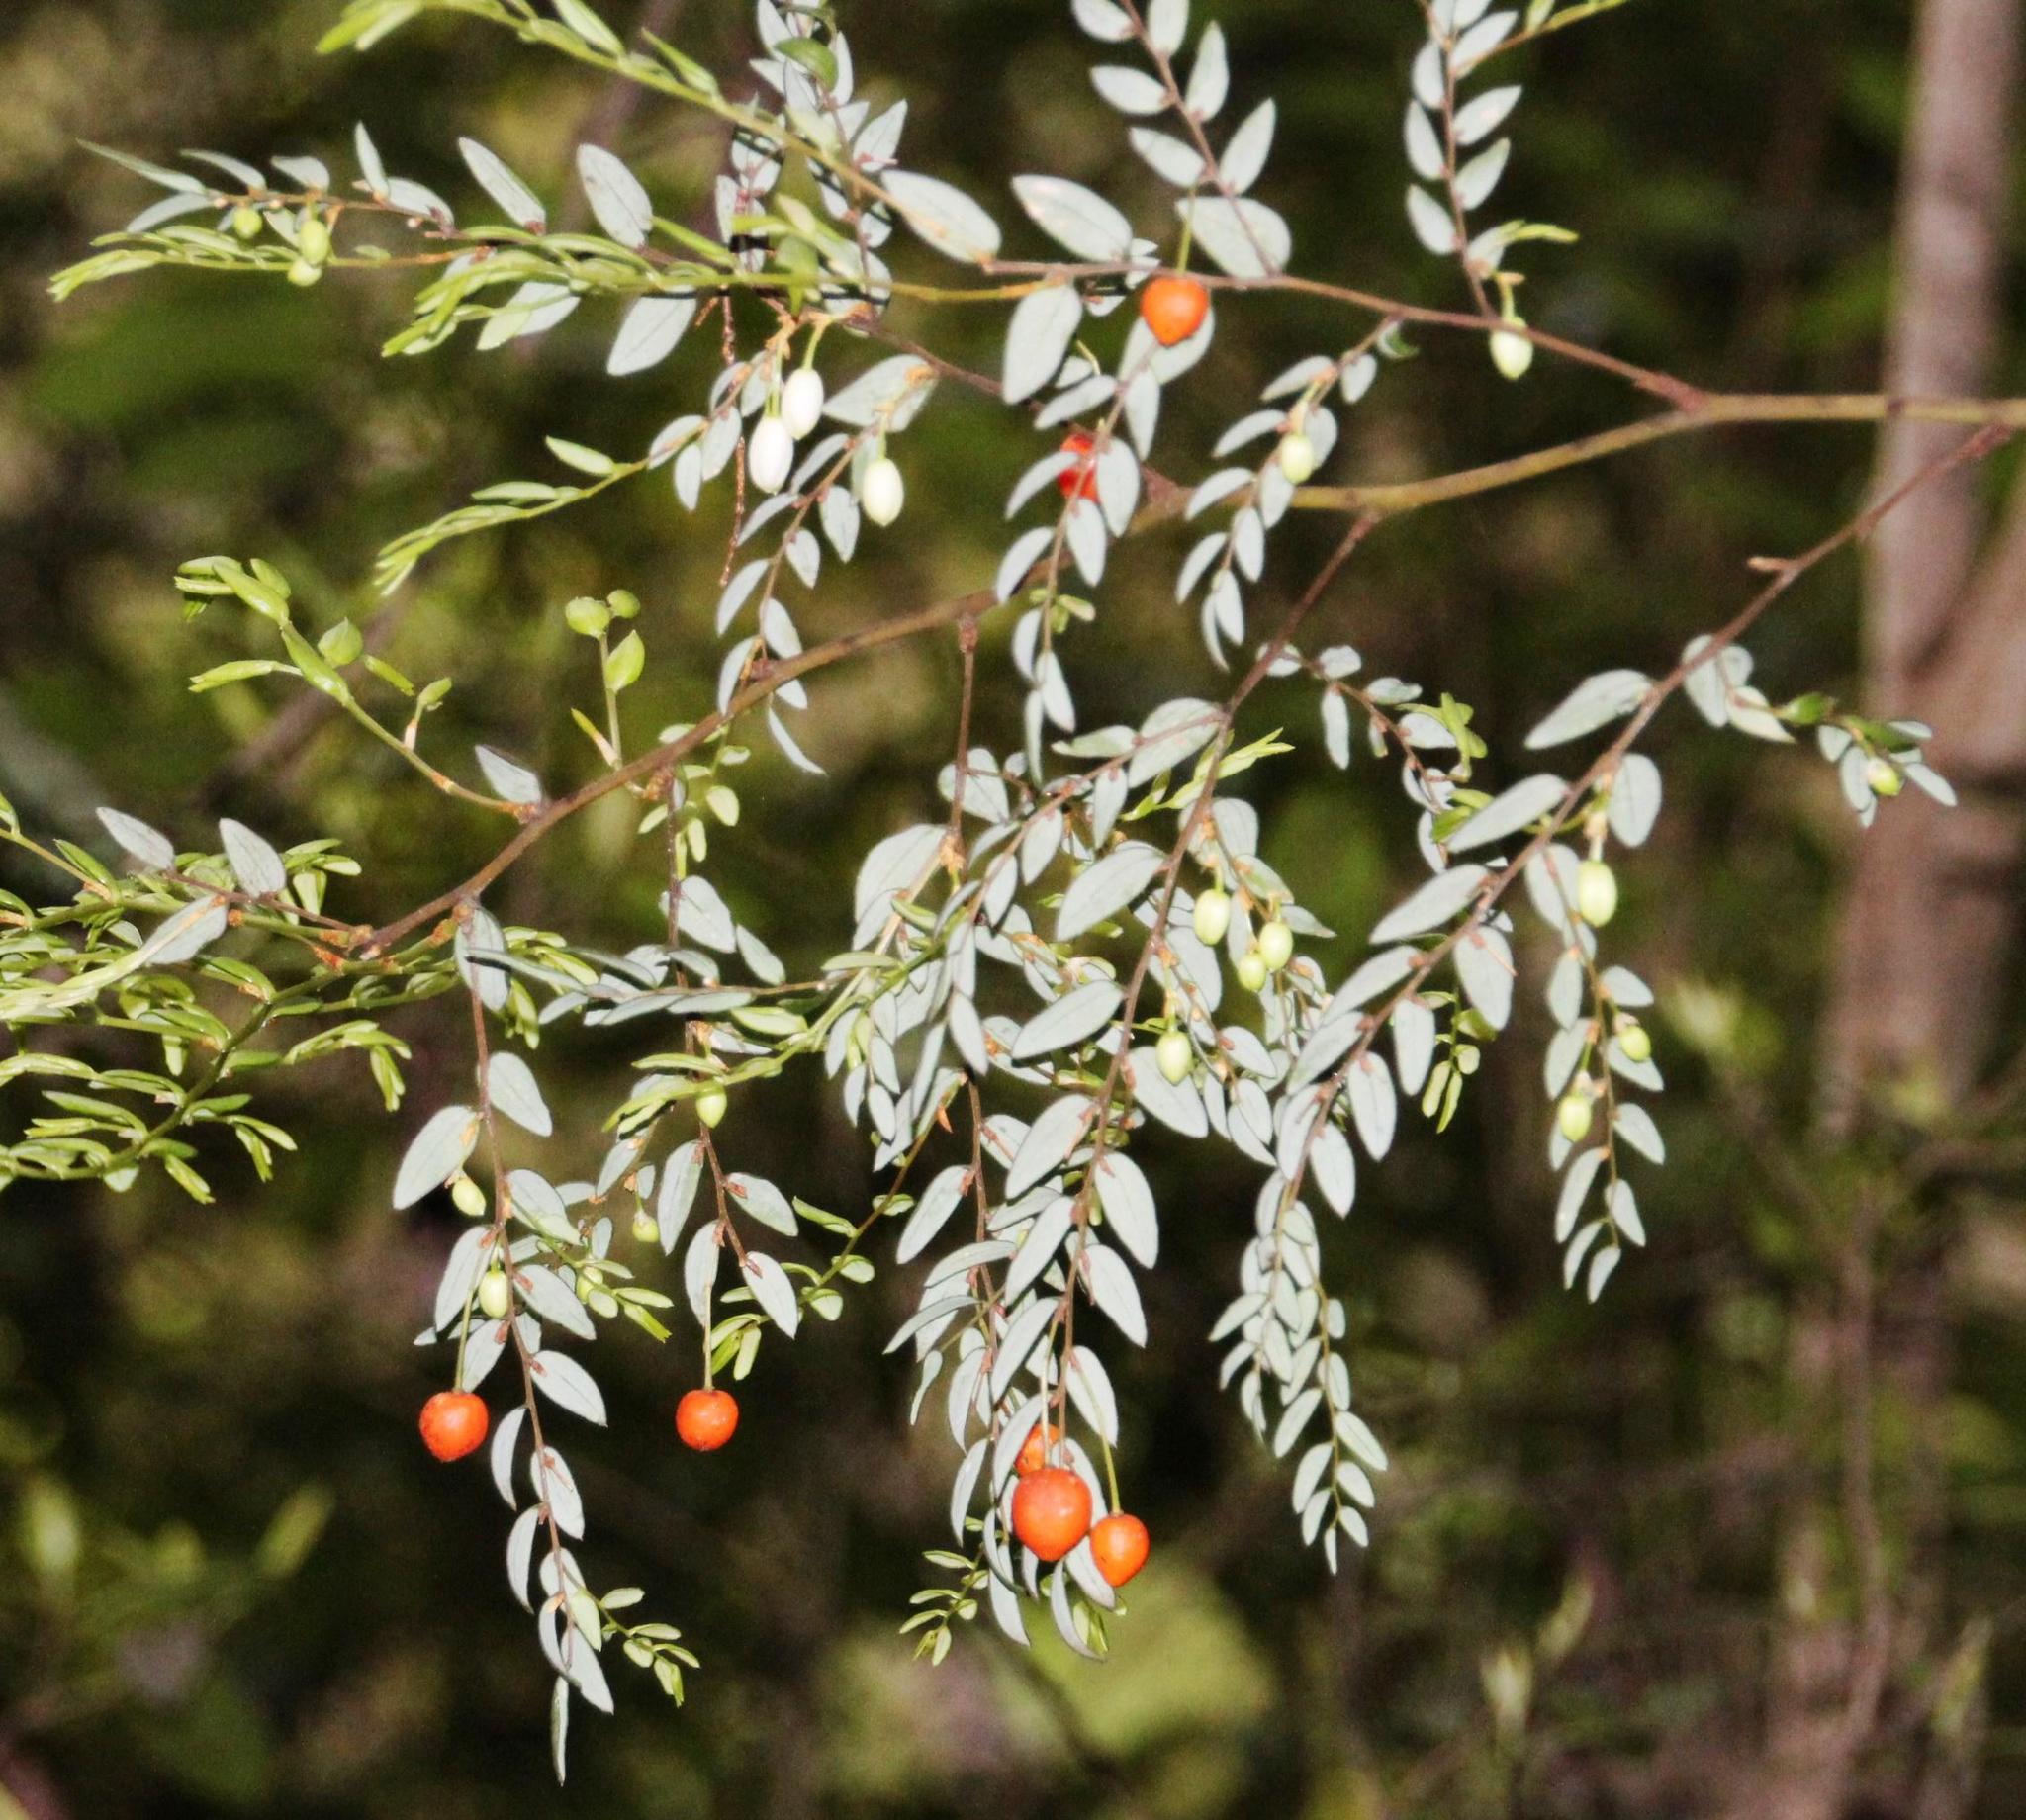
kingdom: Plantae
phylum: Tracheophyta
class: Liliopsida
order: Liliales
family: Alstroemeriaceae
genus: Luzuriaga
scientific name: Luzuriaga polyphylla
